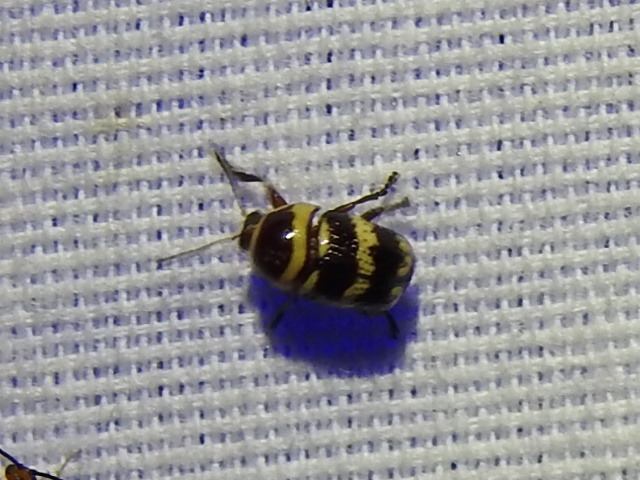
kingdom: Animalia
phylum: Arthropoda
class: Insecta
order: Coleoptera
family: Chrysomelidae
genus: Cryptocephalus
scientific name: Cryptocephalus trizonatus
